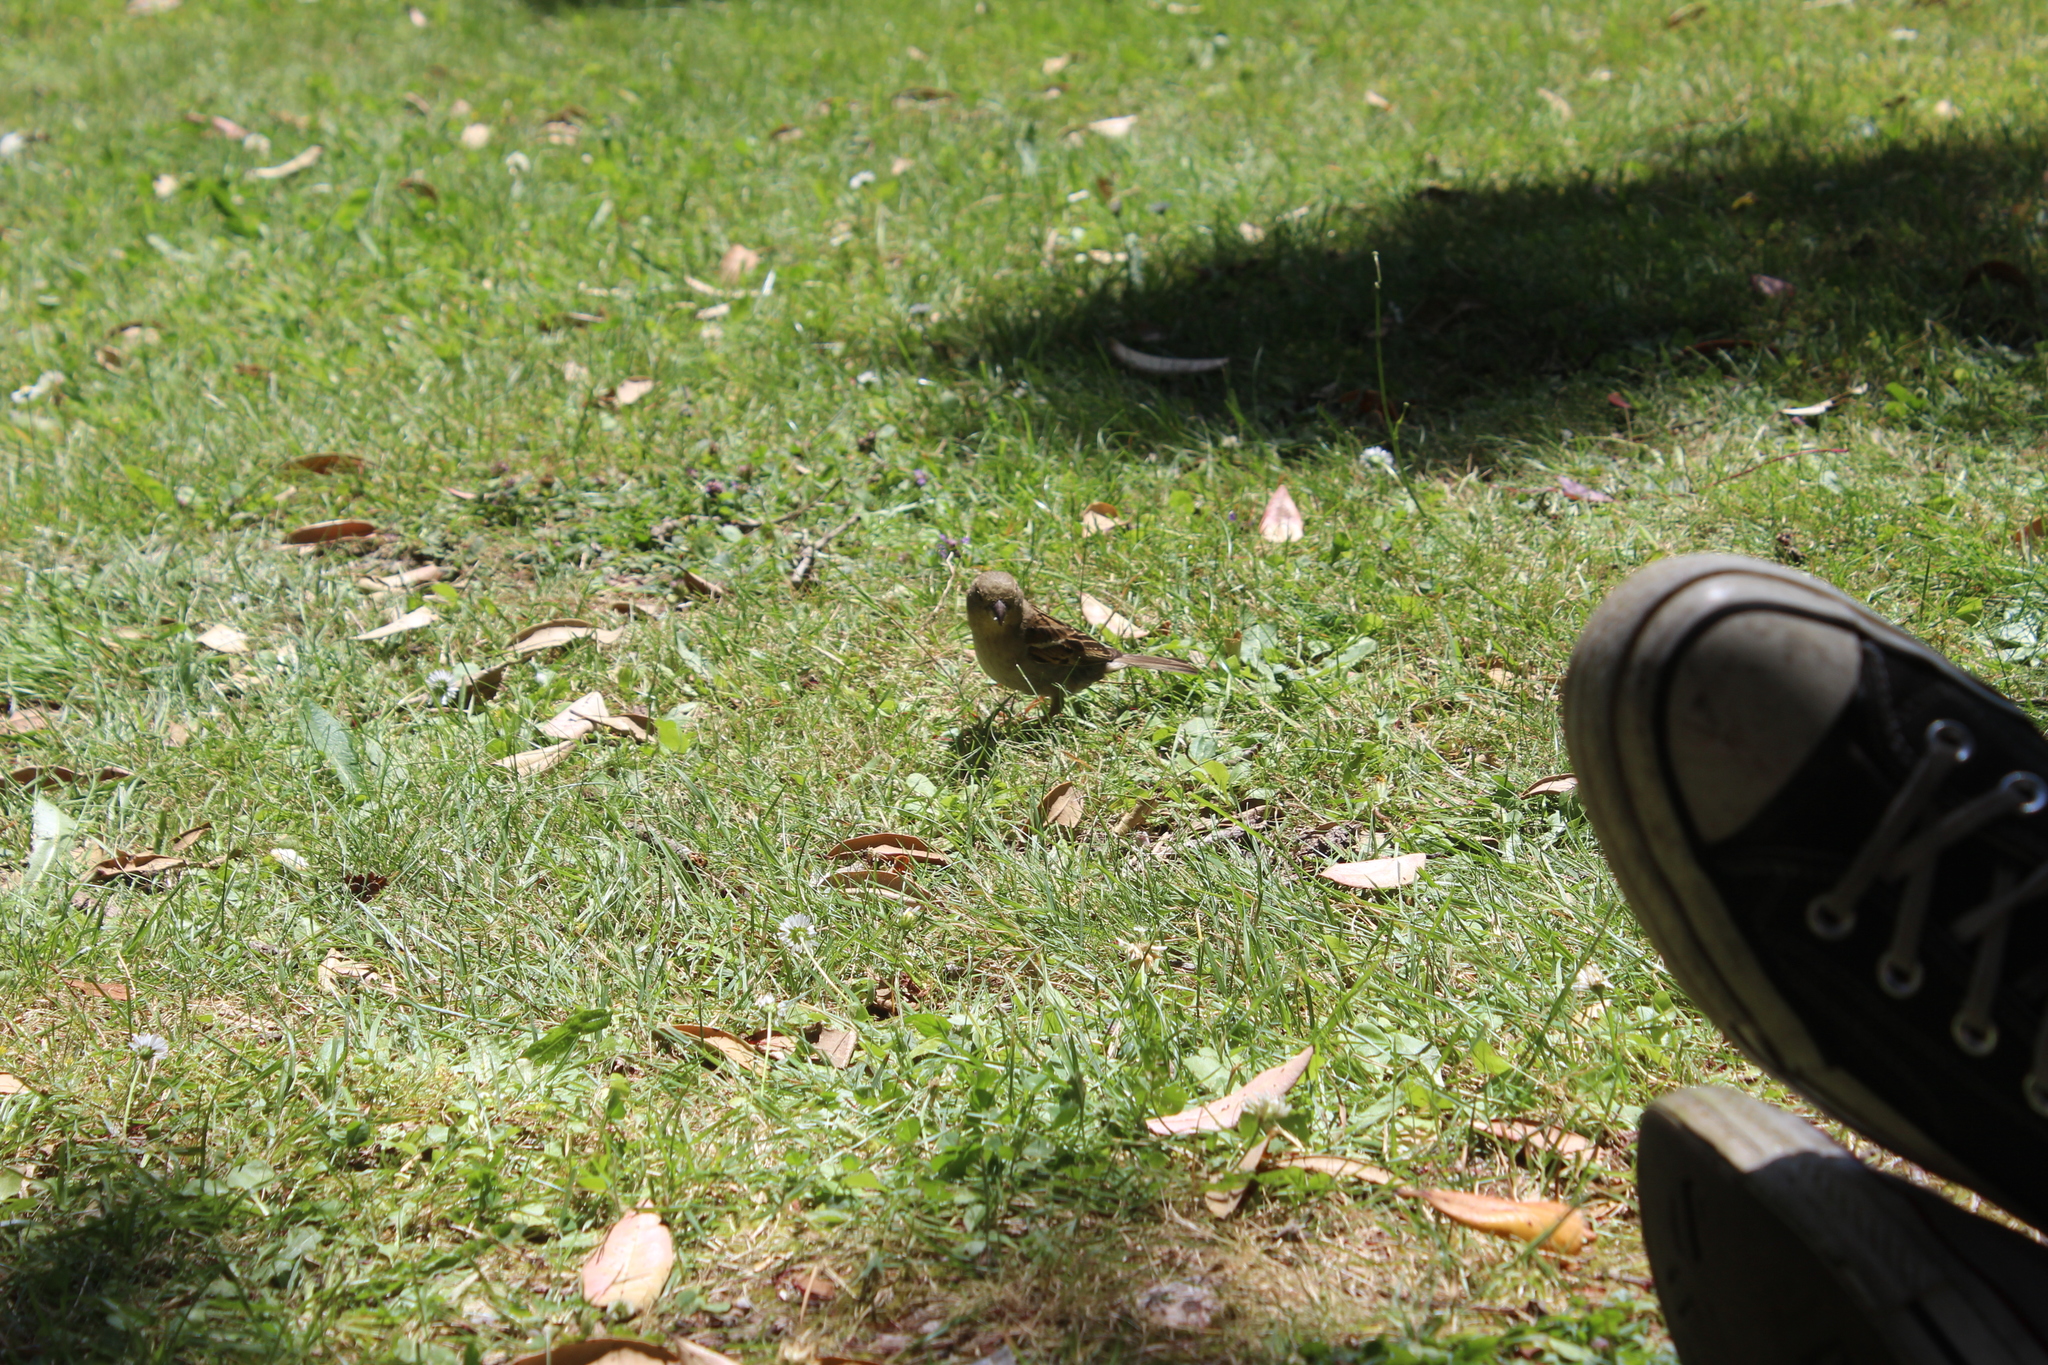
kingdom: Animalia
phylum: Chordata
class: Aves
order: Passeriformes
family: Passeridae
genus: Passer
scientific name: Passer domesticus
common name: House sparrow
